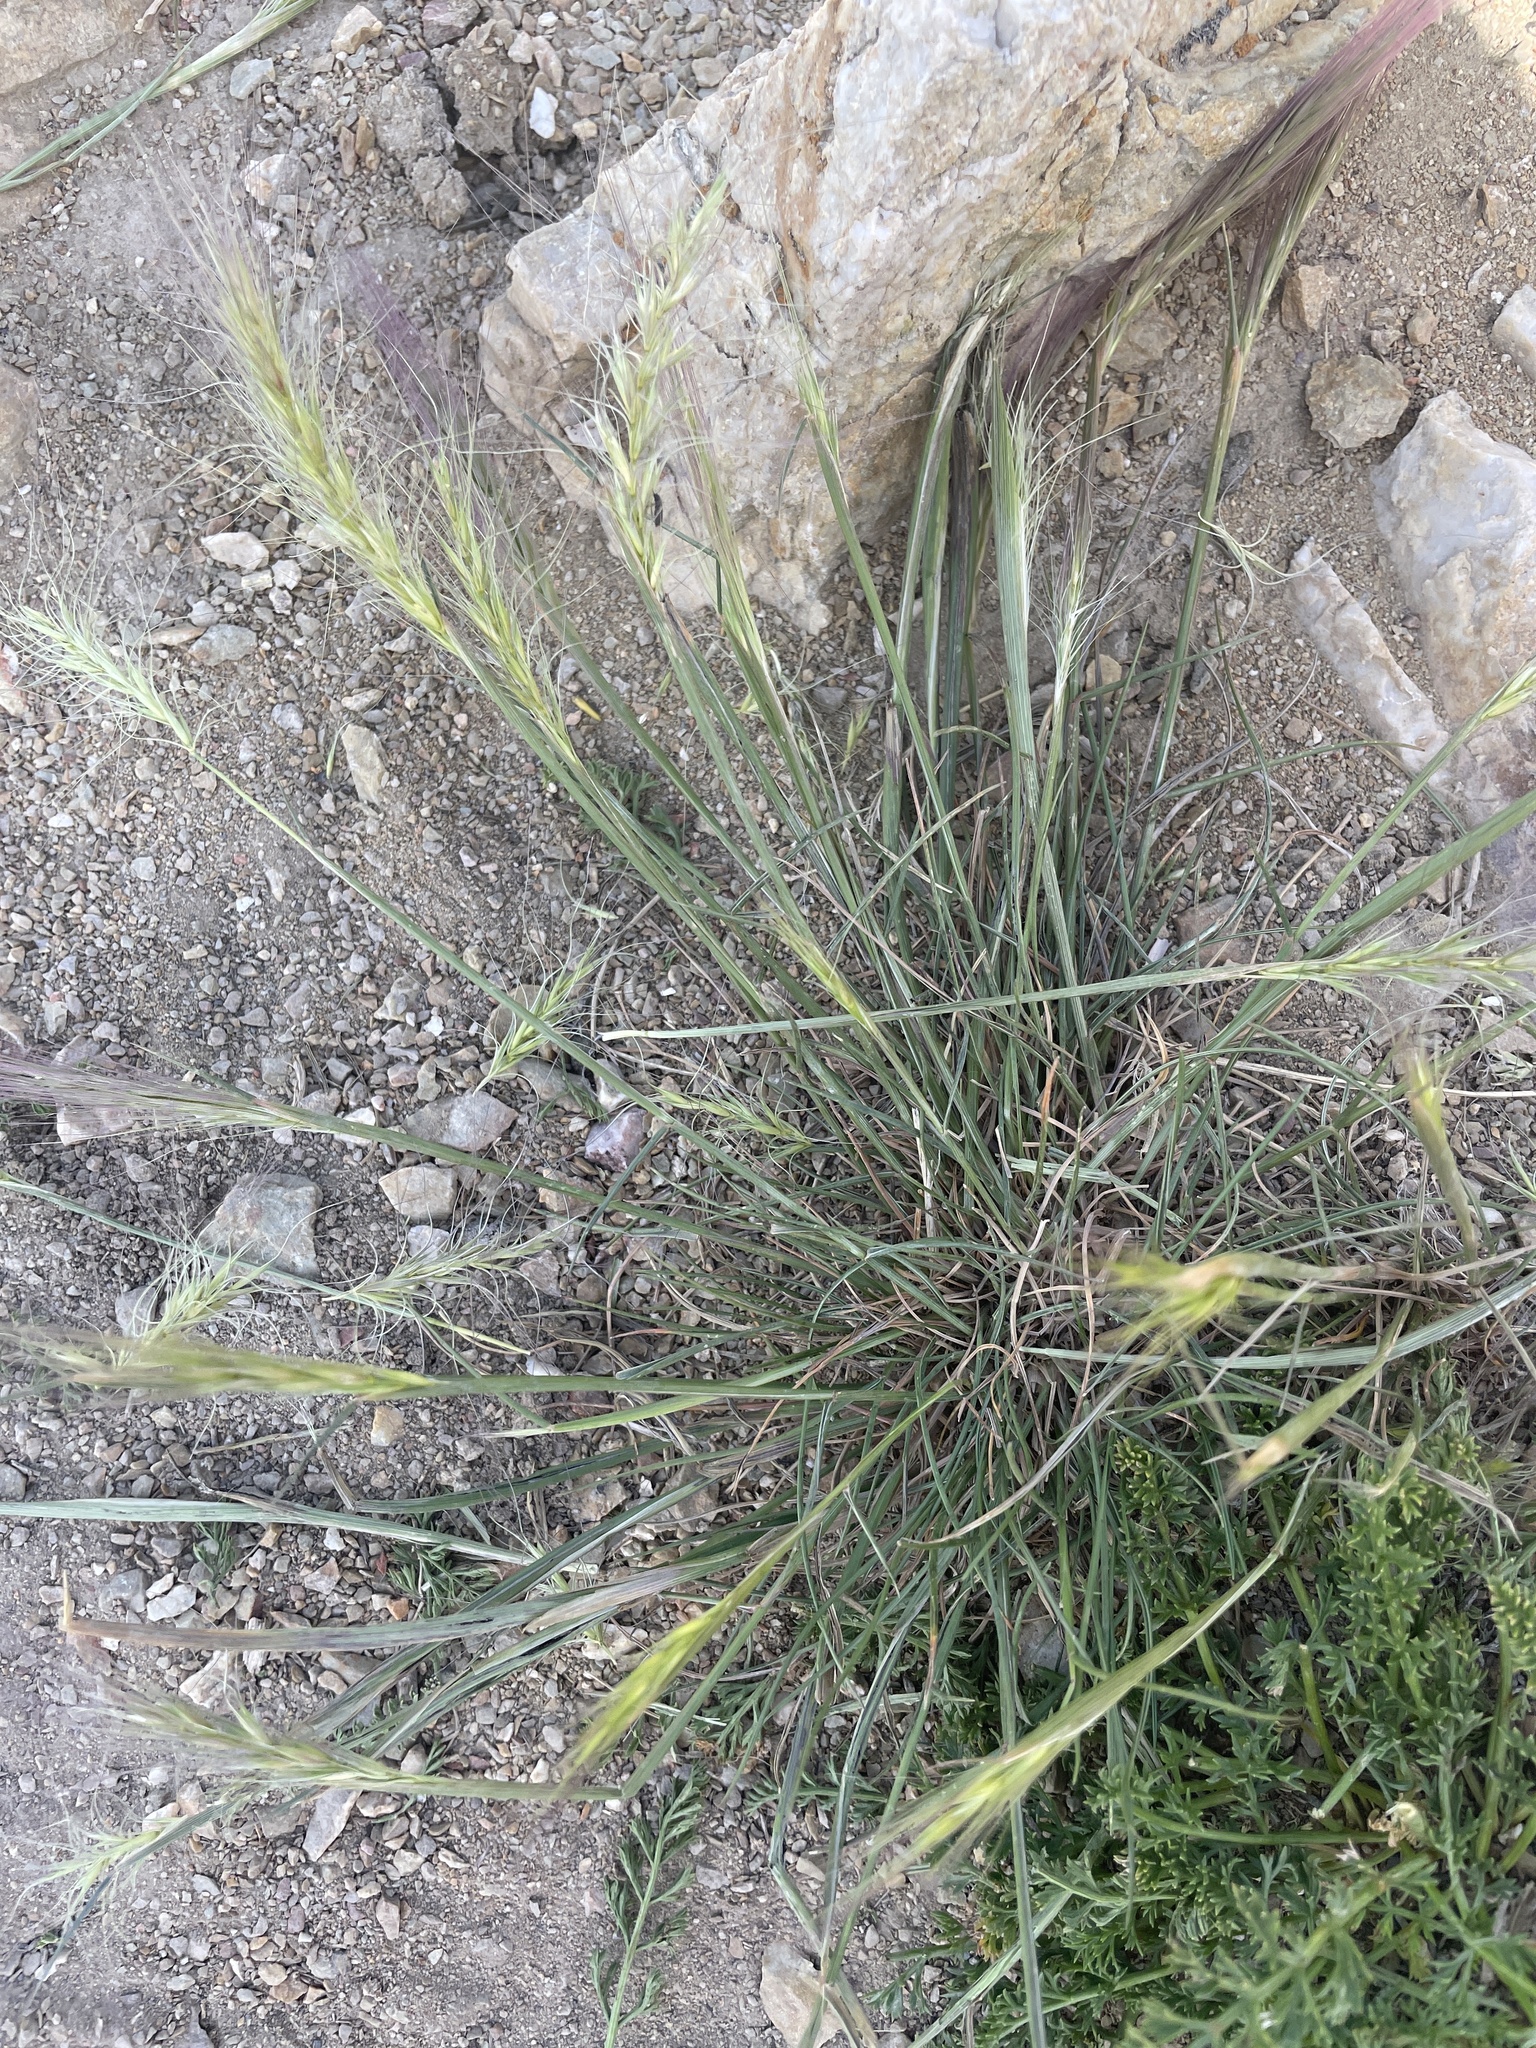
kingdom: Plantae
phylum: Tracheophyta
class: Liliopsida
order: Poales
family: Poaceae
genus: Elymus
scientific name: Elymus elymoides
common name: Bottlebrush squirreltail
